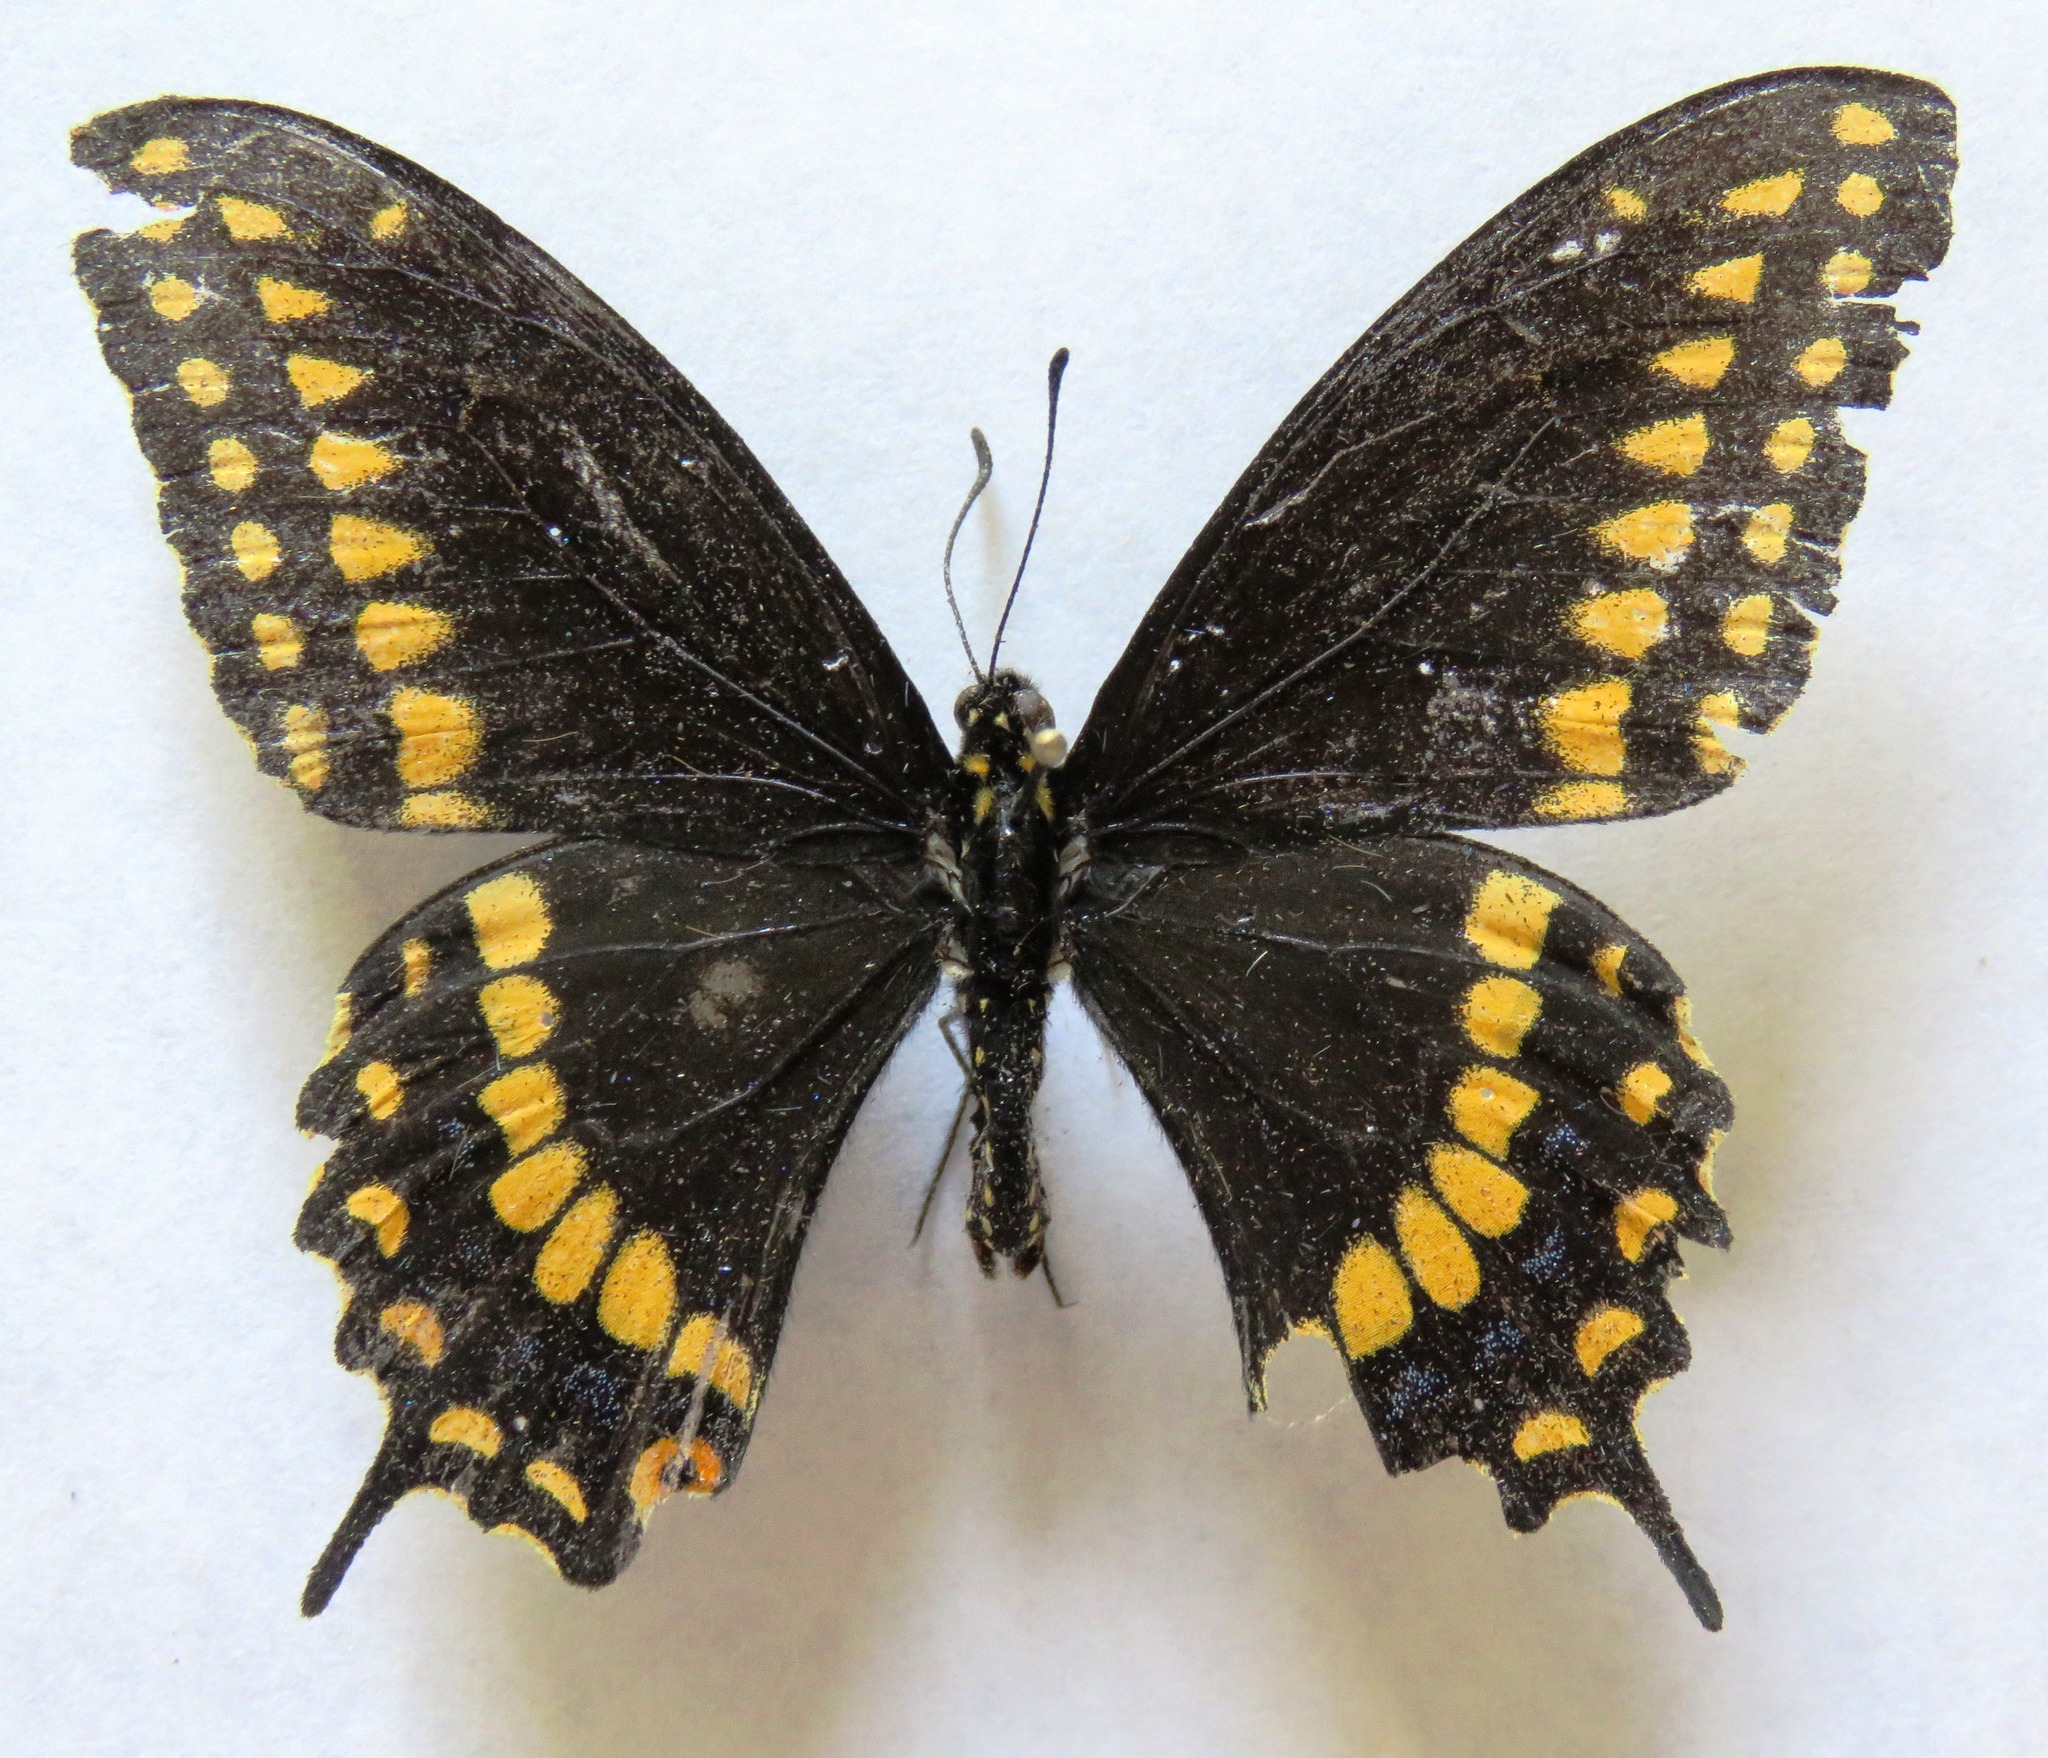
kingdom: Animalia
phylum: Arthropoda
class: Insecta
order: Lepidoptera
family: Papilionidae
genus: Papilio
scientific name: Papilio polyxenes
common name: Black swallowtail
